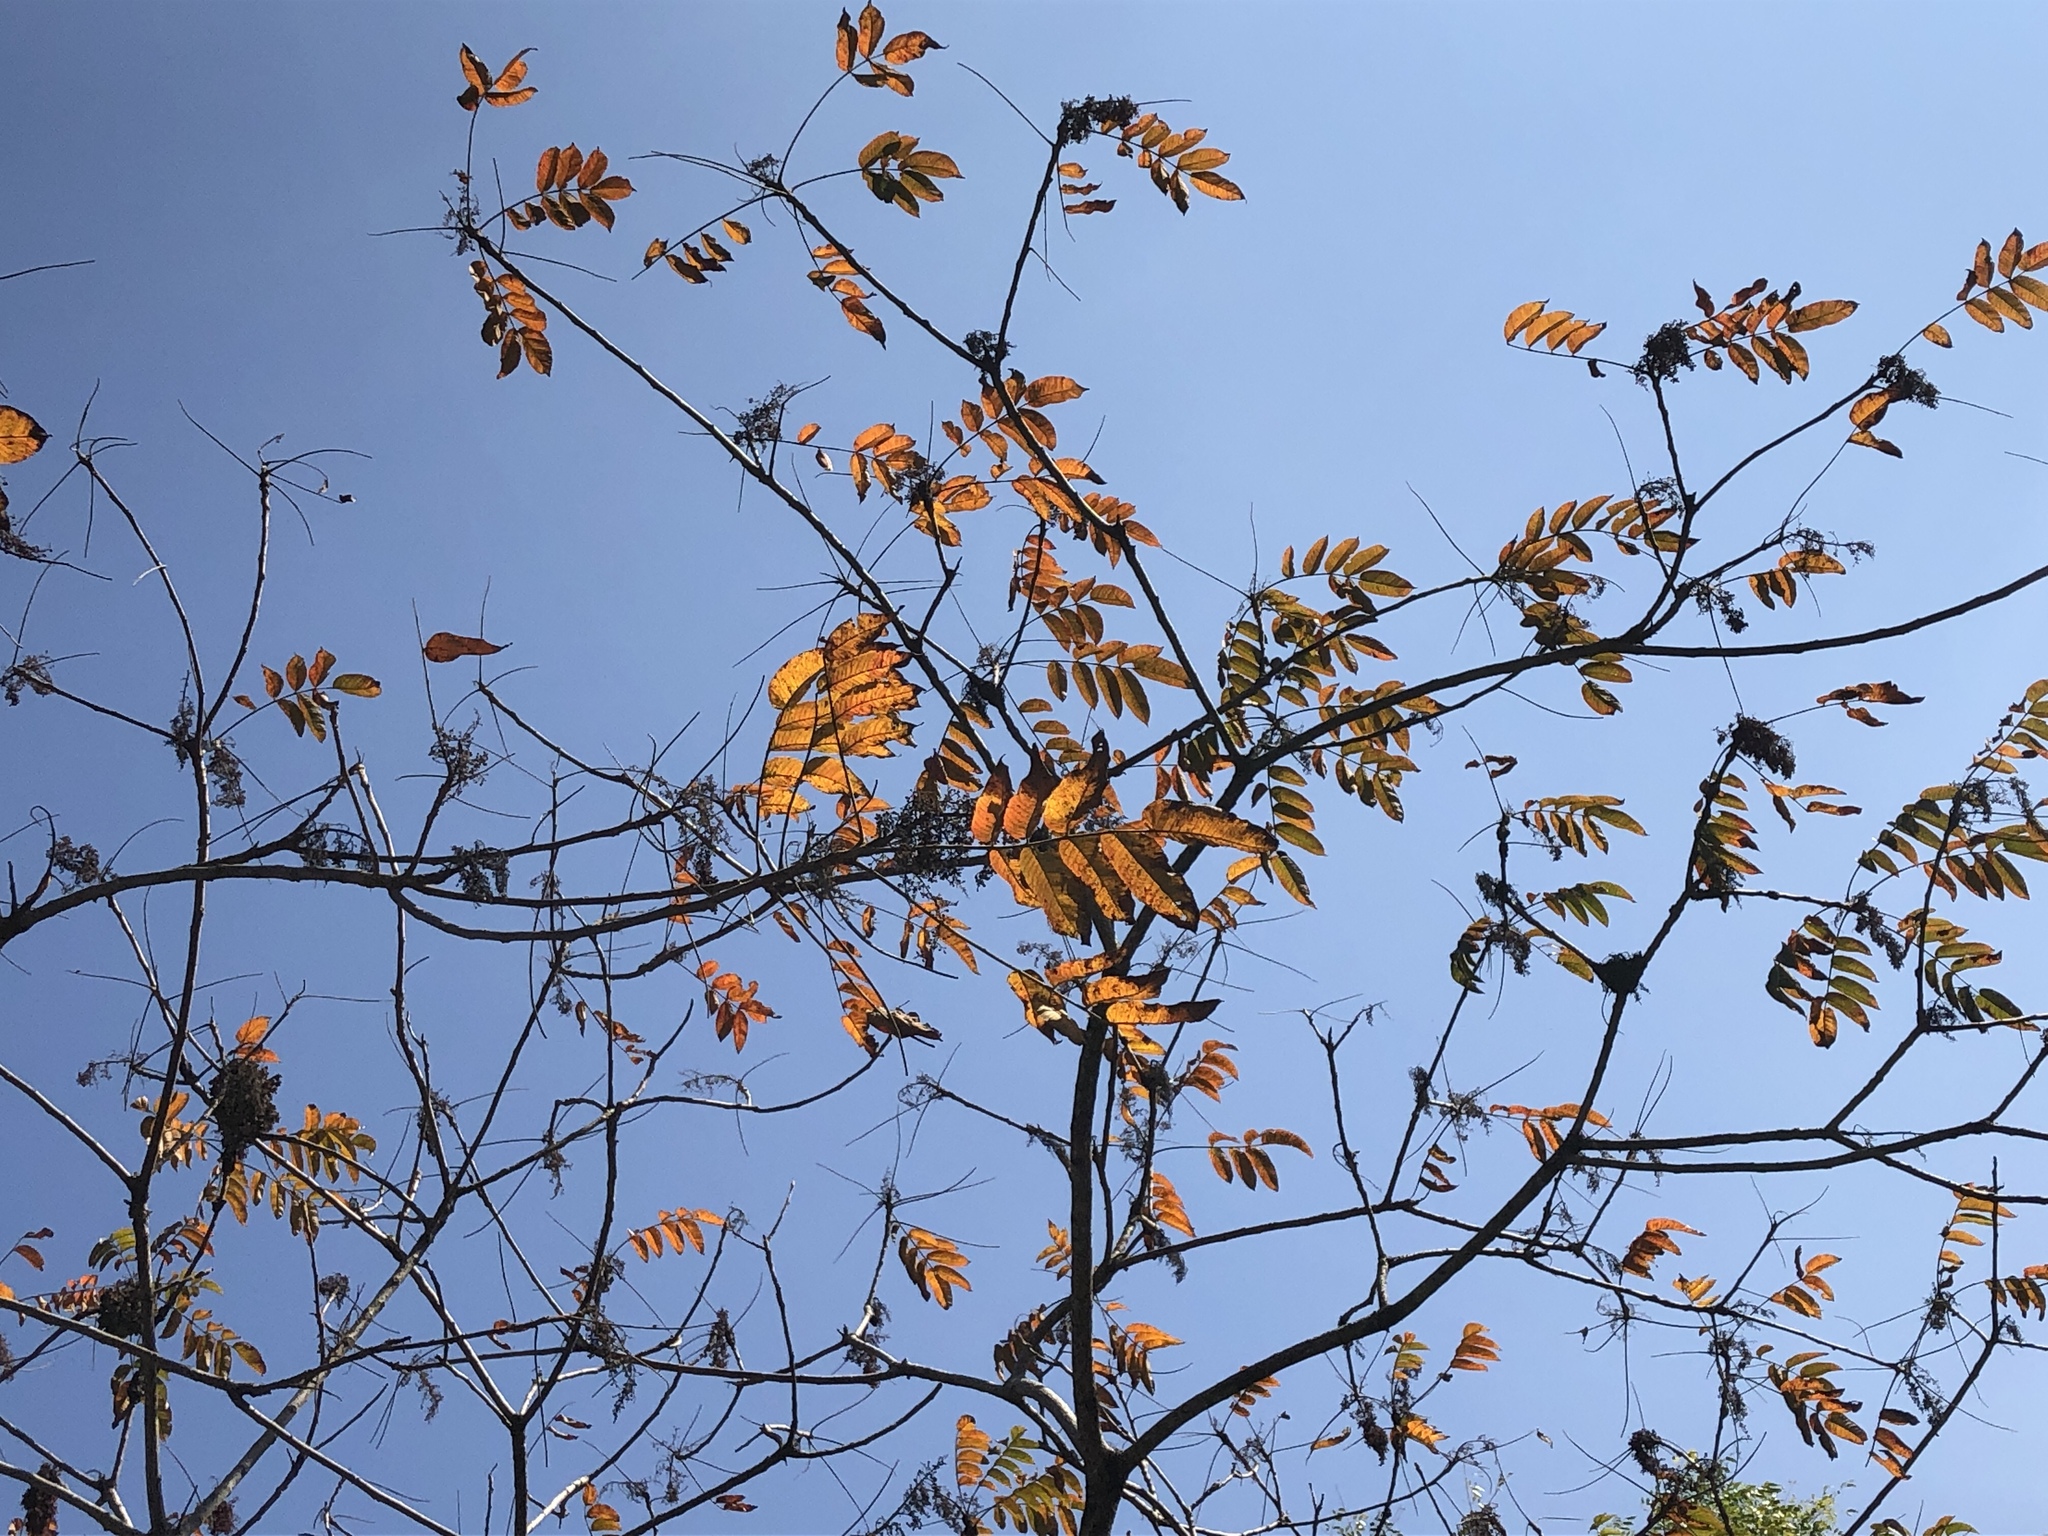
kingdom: Plantae
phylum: Tracheophyta
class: Magnoliopsida
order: Sapindales
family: Anacardiaceae
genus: Rhus
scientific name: Rhus chinensis
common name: Chinese gall
